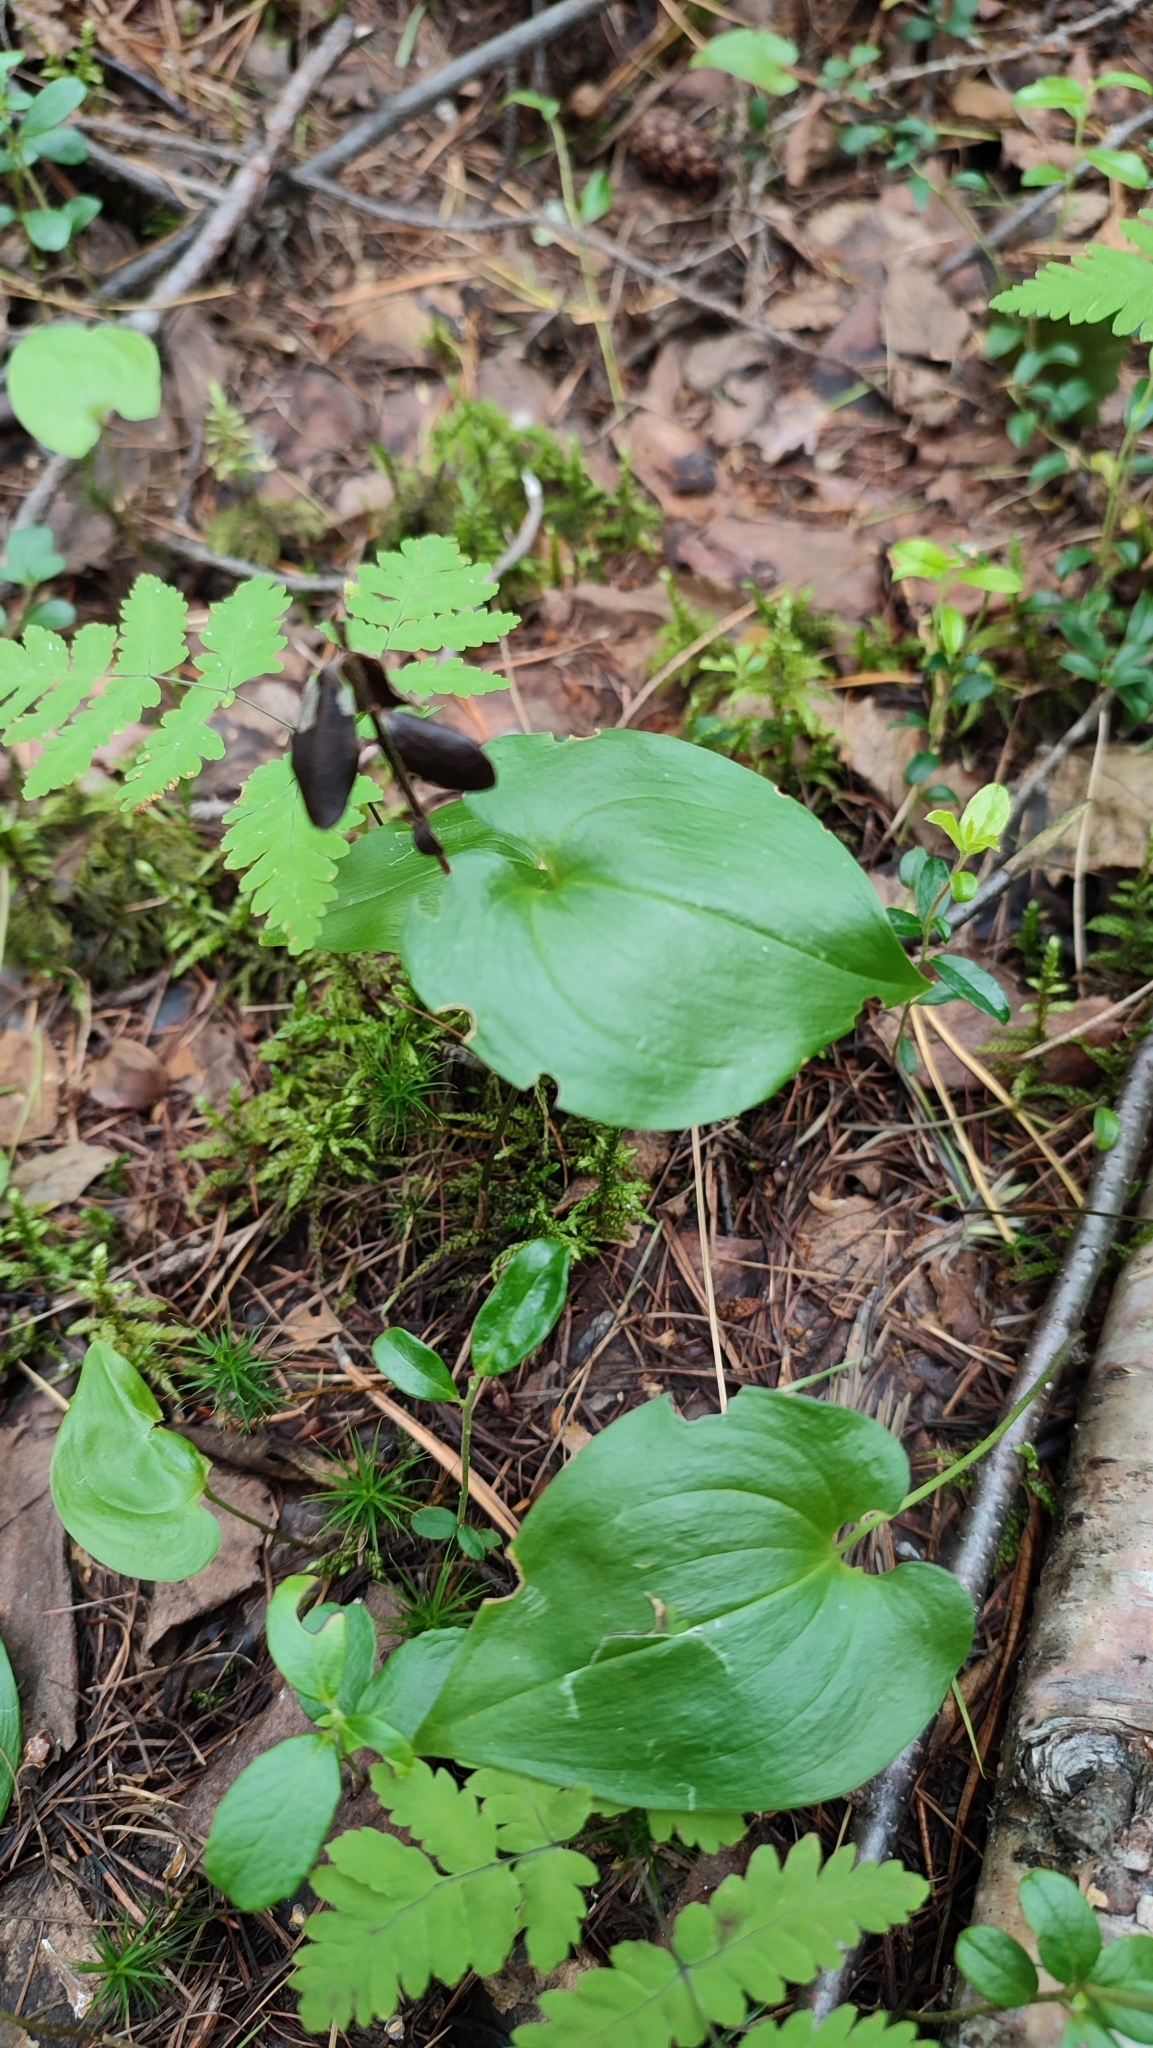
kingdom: Plantae
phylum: Tracheophyta
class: Liliopsida
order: Asparagales
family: Asparagaceae
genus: Maianthemum
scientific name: Maianthemum bifolium
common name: May lily
